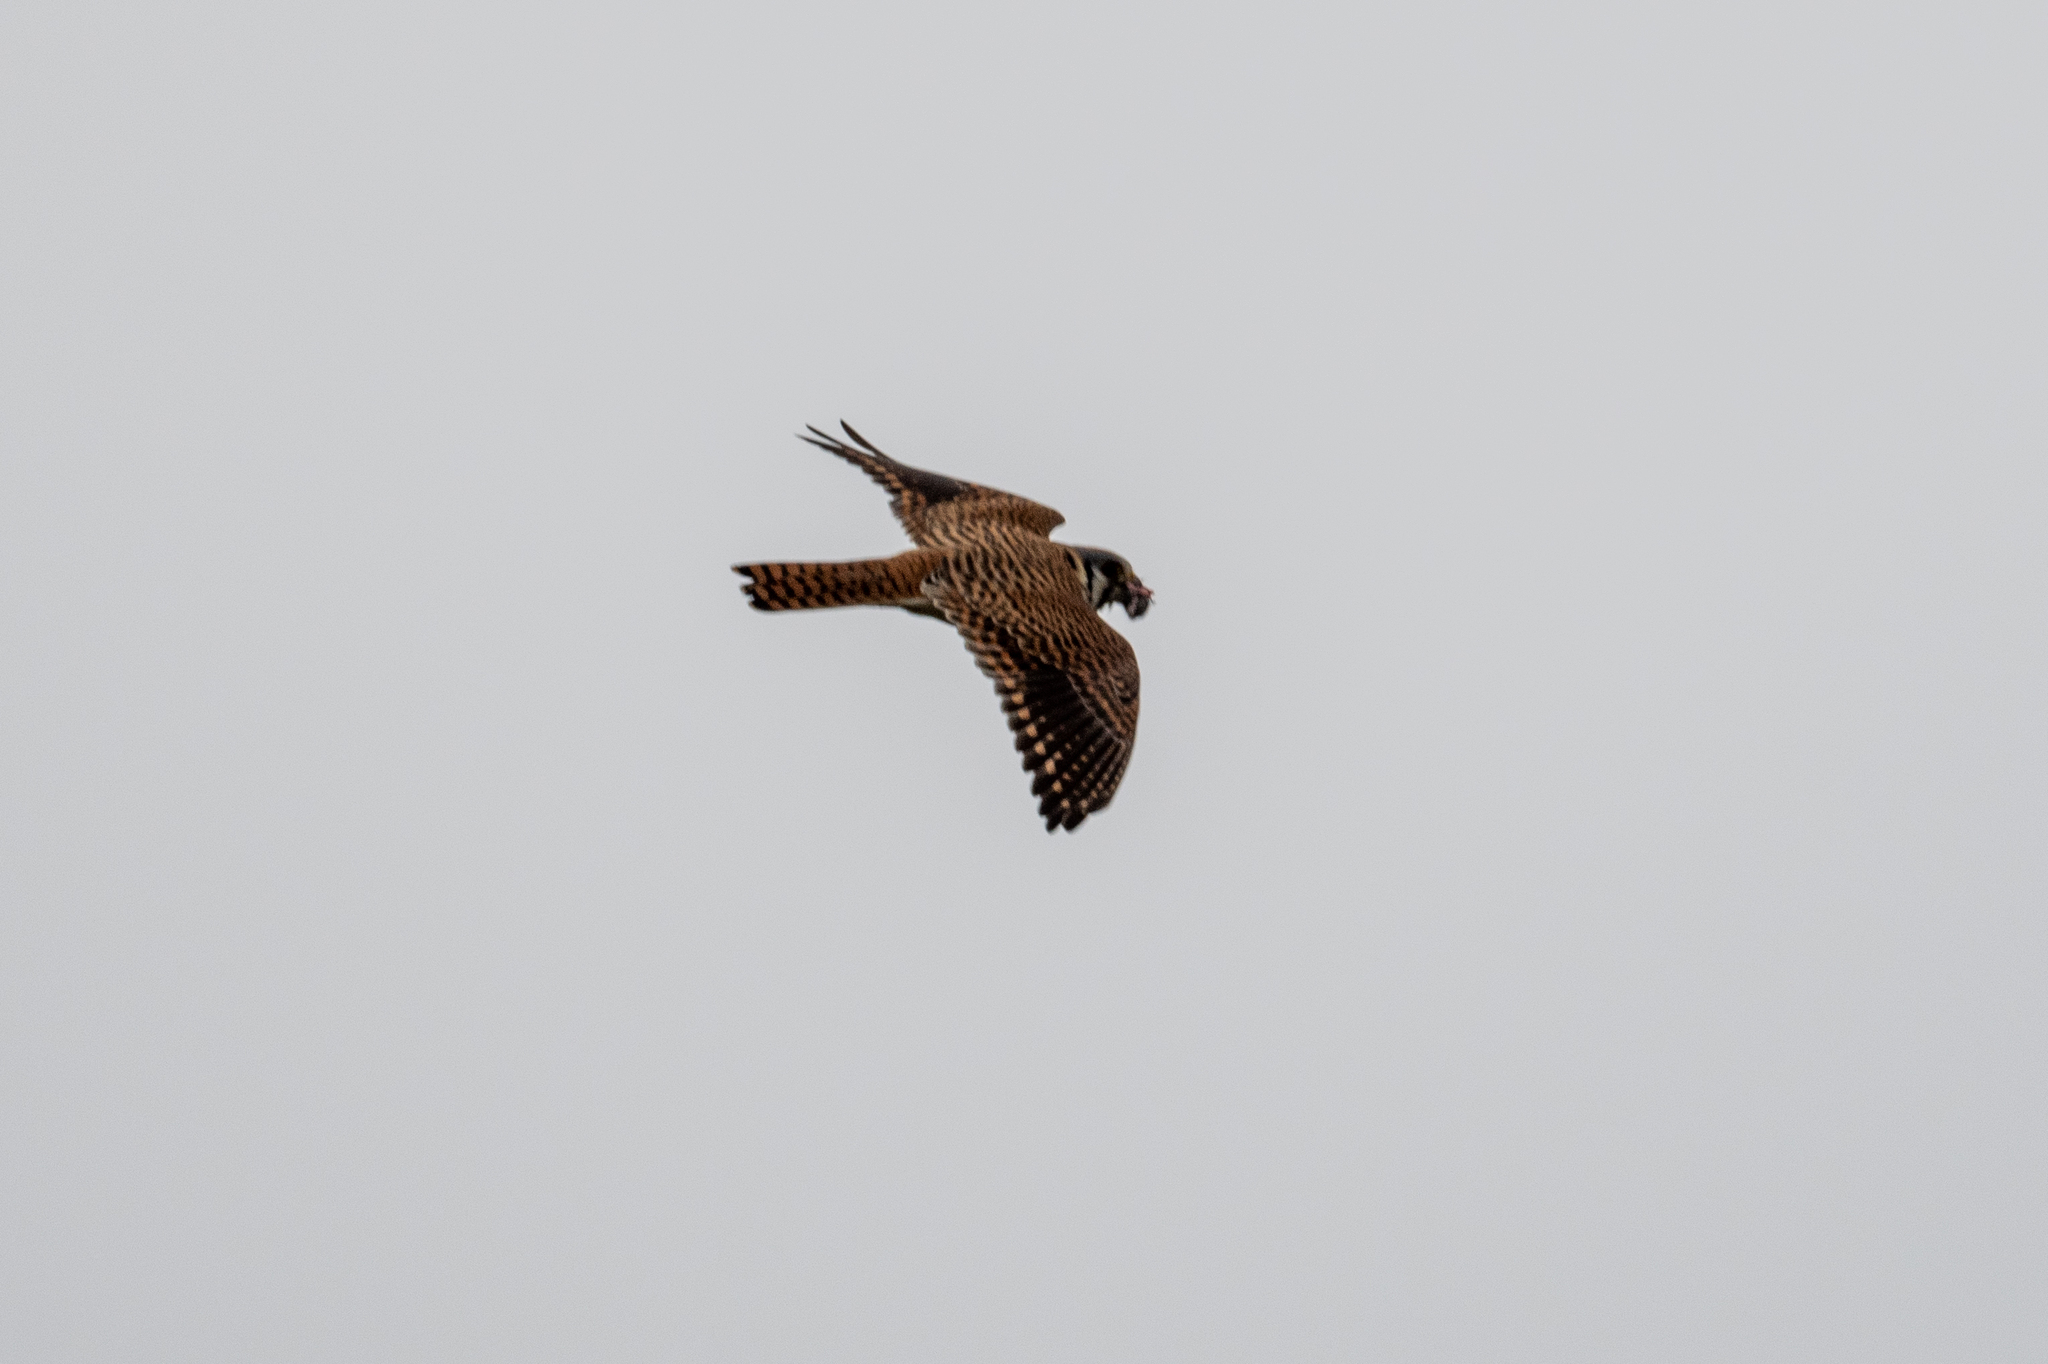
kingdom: Animalia
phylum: Chordata
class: Aves
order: Falconiformes
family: Falconidae
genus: Falco
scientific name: Falco sparverius
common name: American kestrel
